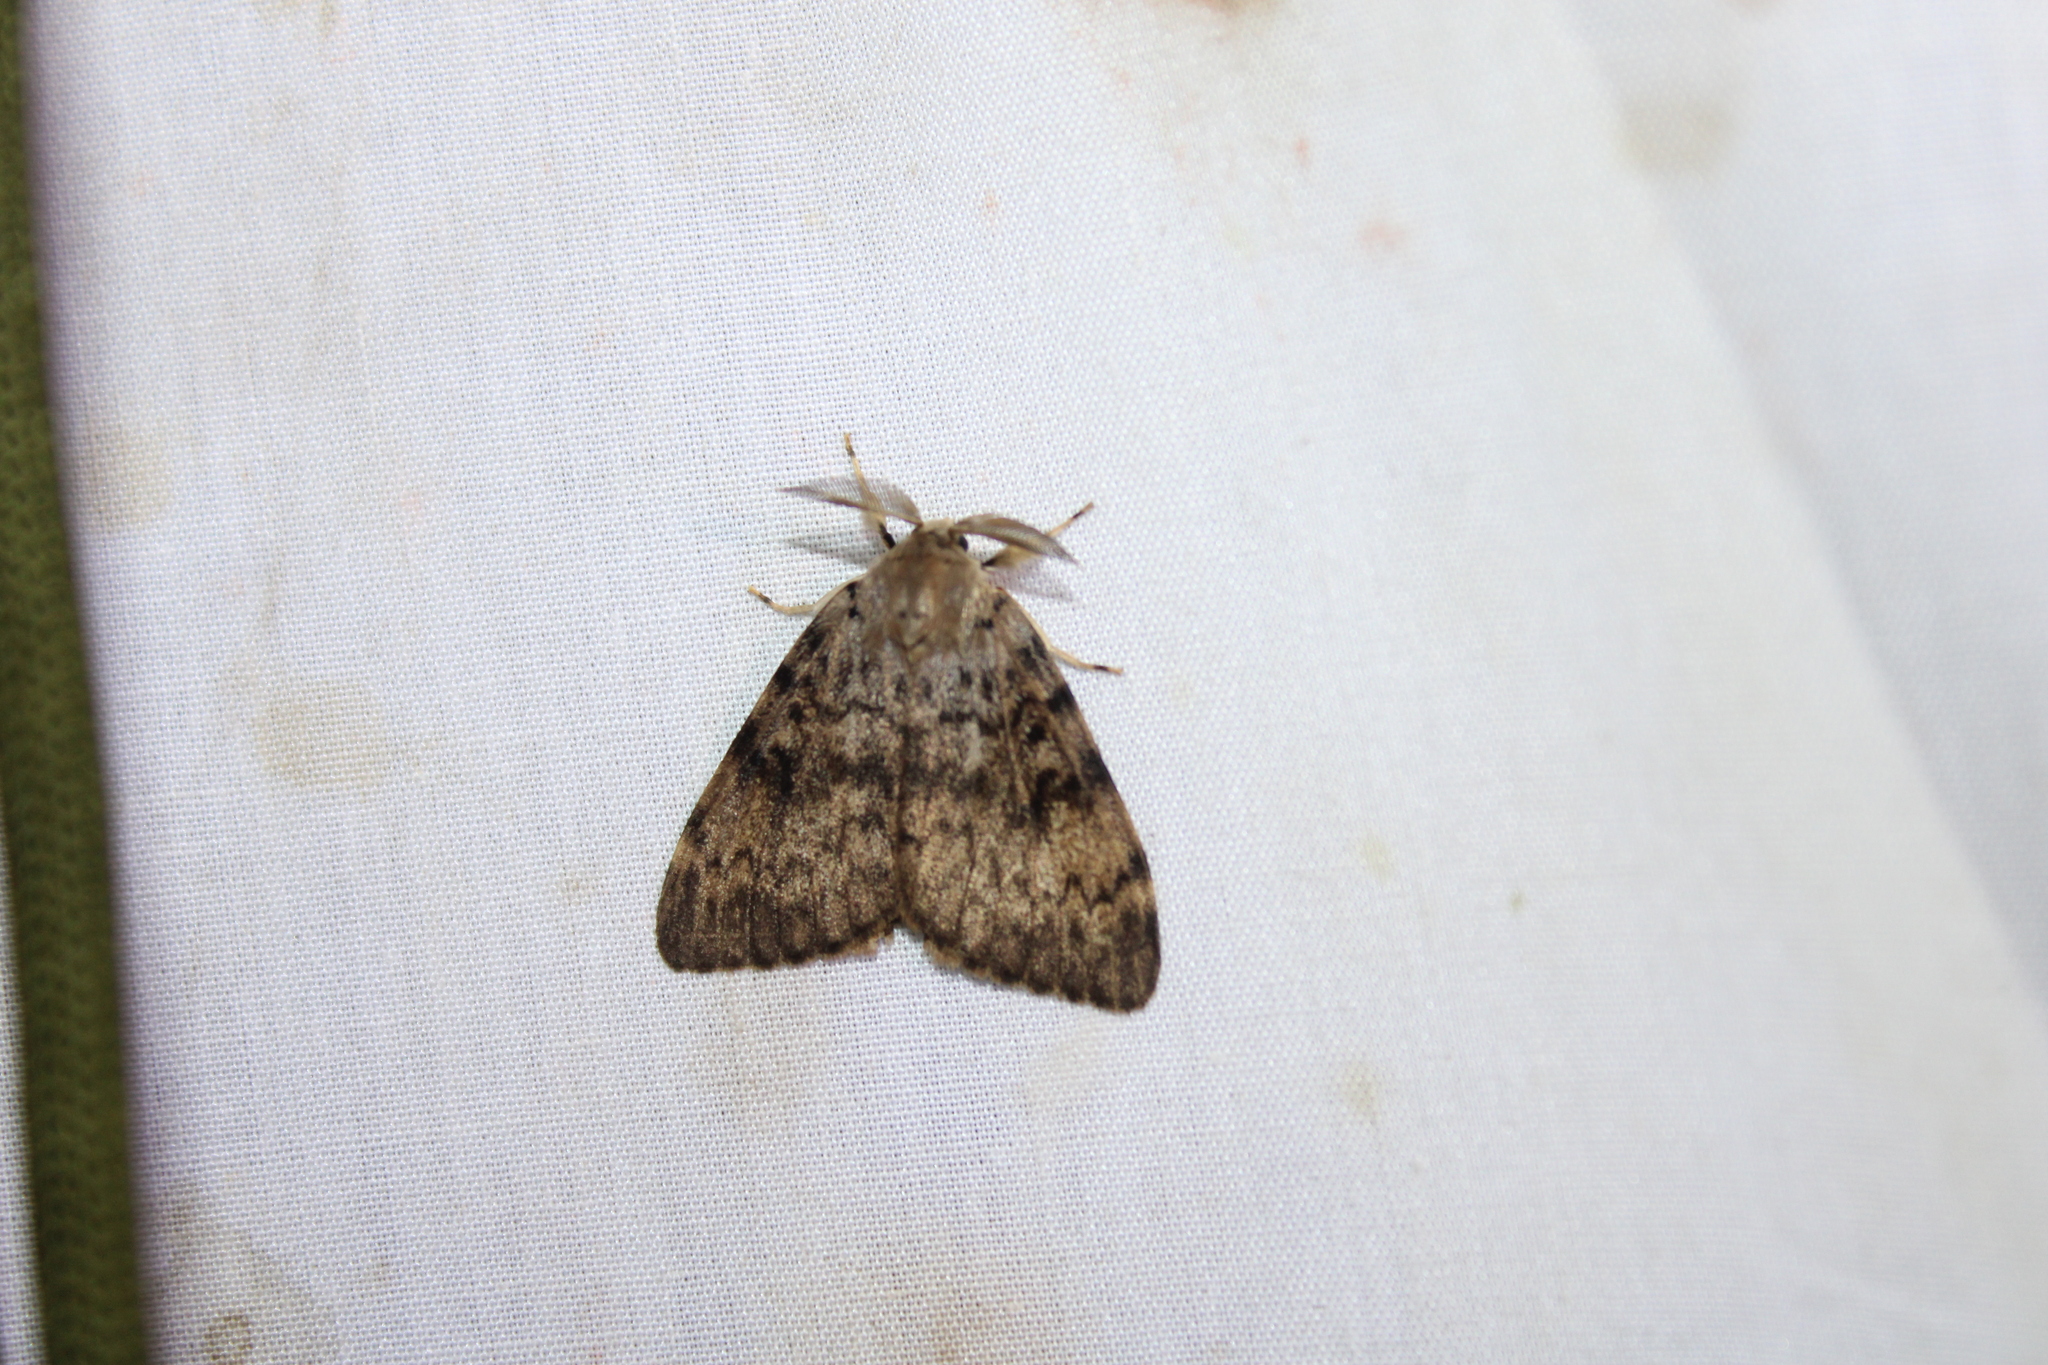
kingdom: Animalia
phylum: Arthropoda
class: Insecta
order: Lepidoptera
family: Erebidae
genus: Lymantria
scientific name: Lymantria dispar
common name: Gypsy moth
